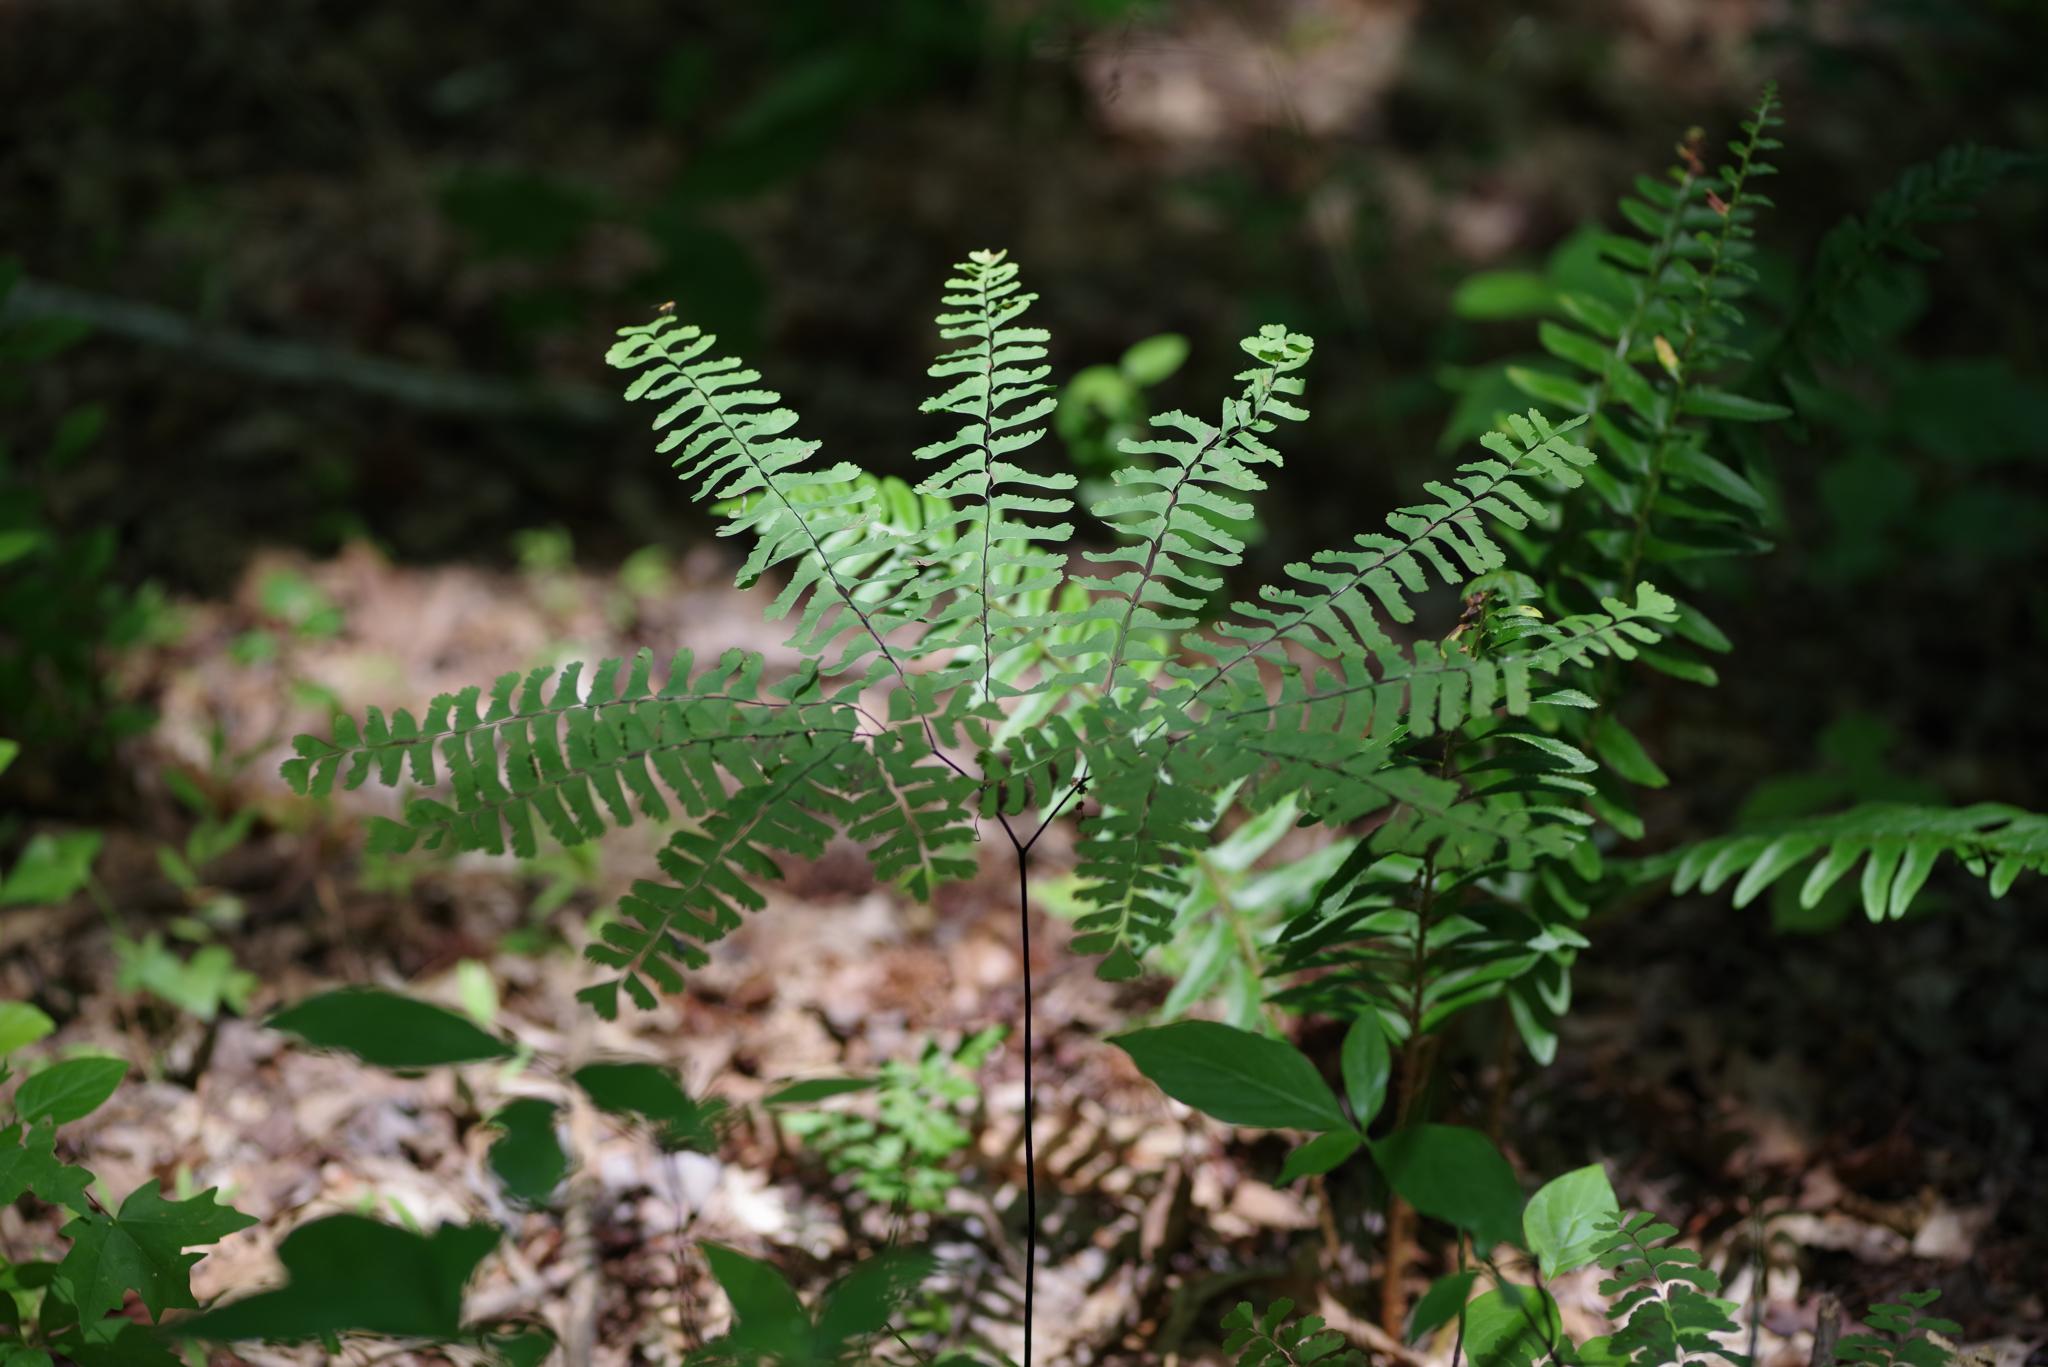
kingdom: Plantae
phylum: Tracheophyta
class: Polypodiopsida
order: Polypodiales
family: Pteridaceae
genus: Adiantum
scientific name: Adiantum pedatum
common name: Five-finger fern
